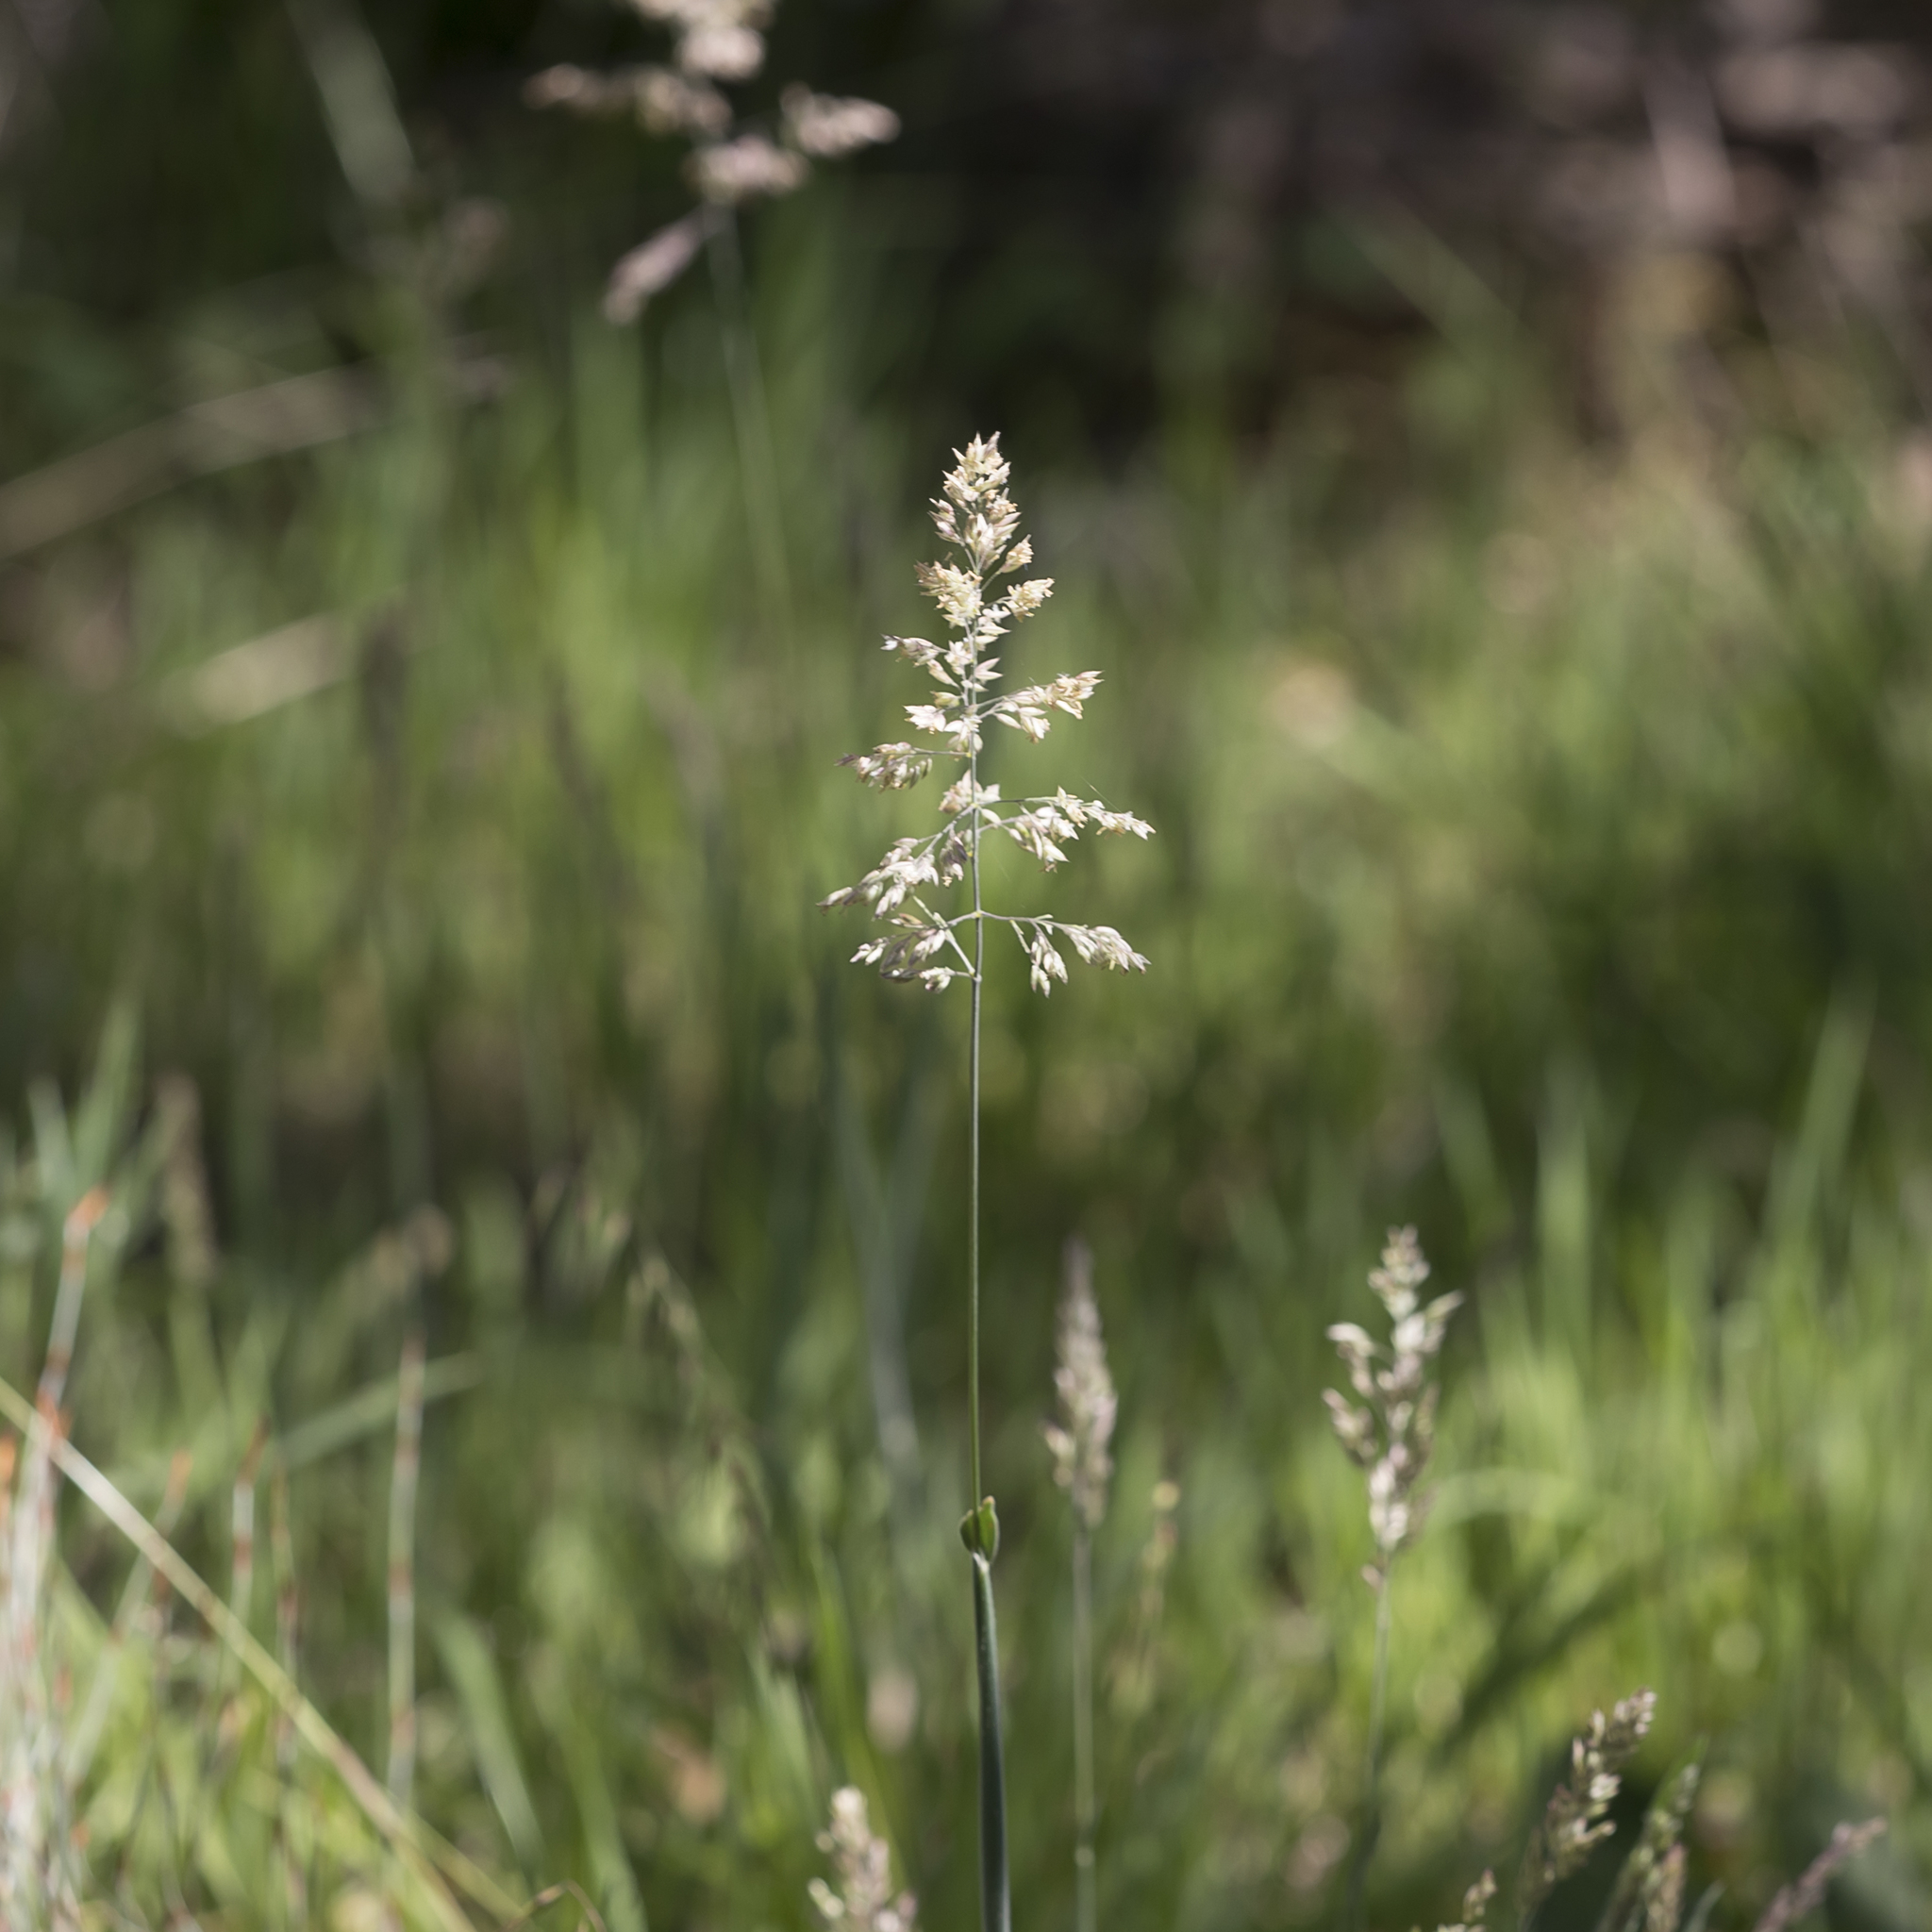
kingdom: Plantae
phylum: Tracheophyta
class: Liliopsida
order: Poales
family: Poaceae
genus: Holcus
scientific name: Holcus lanatus
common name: Yorkshire-fog
